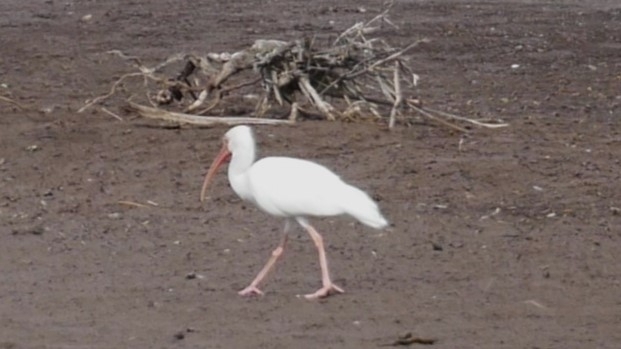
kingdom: Animalia
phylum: Chordata
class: Aves
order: Pelecaniformes
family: Threskiornithidae
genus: Eudocimus
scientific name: Eudocimus albus
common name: White ibis
